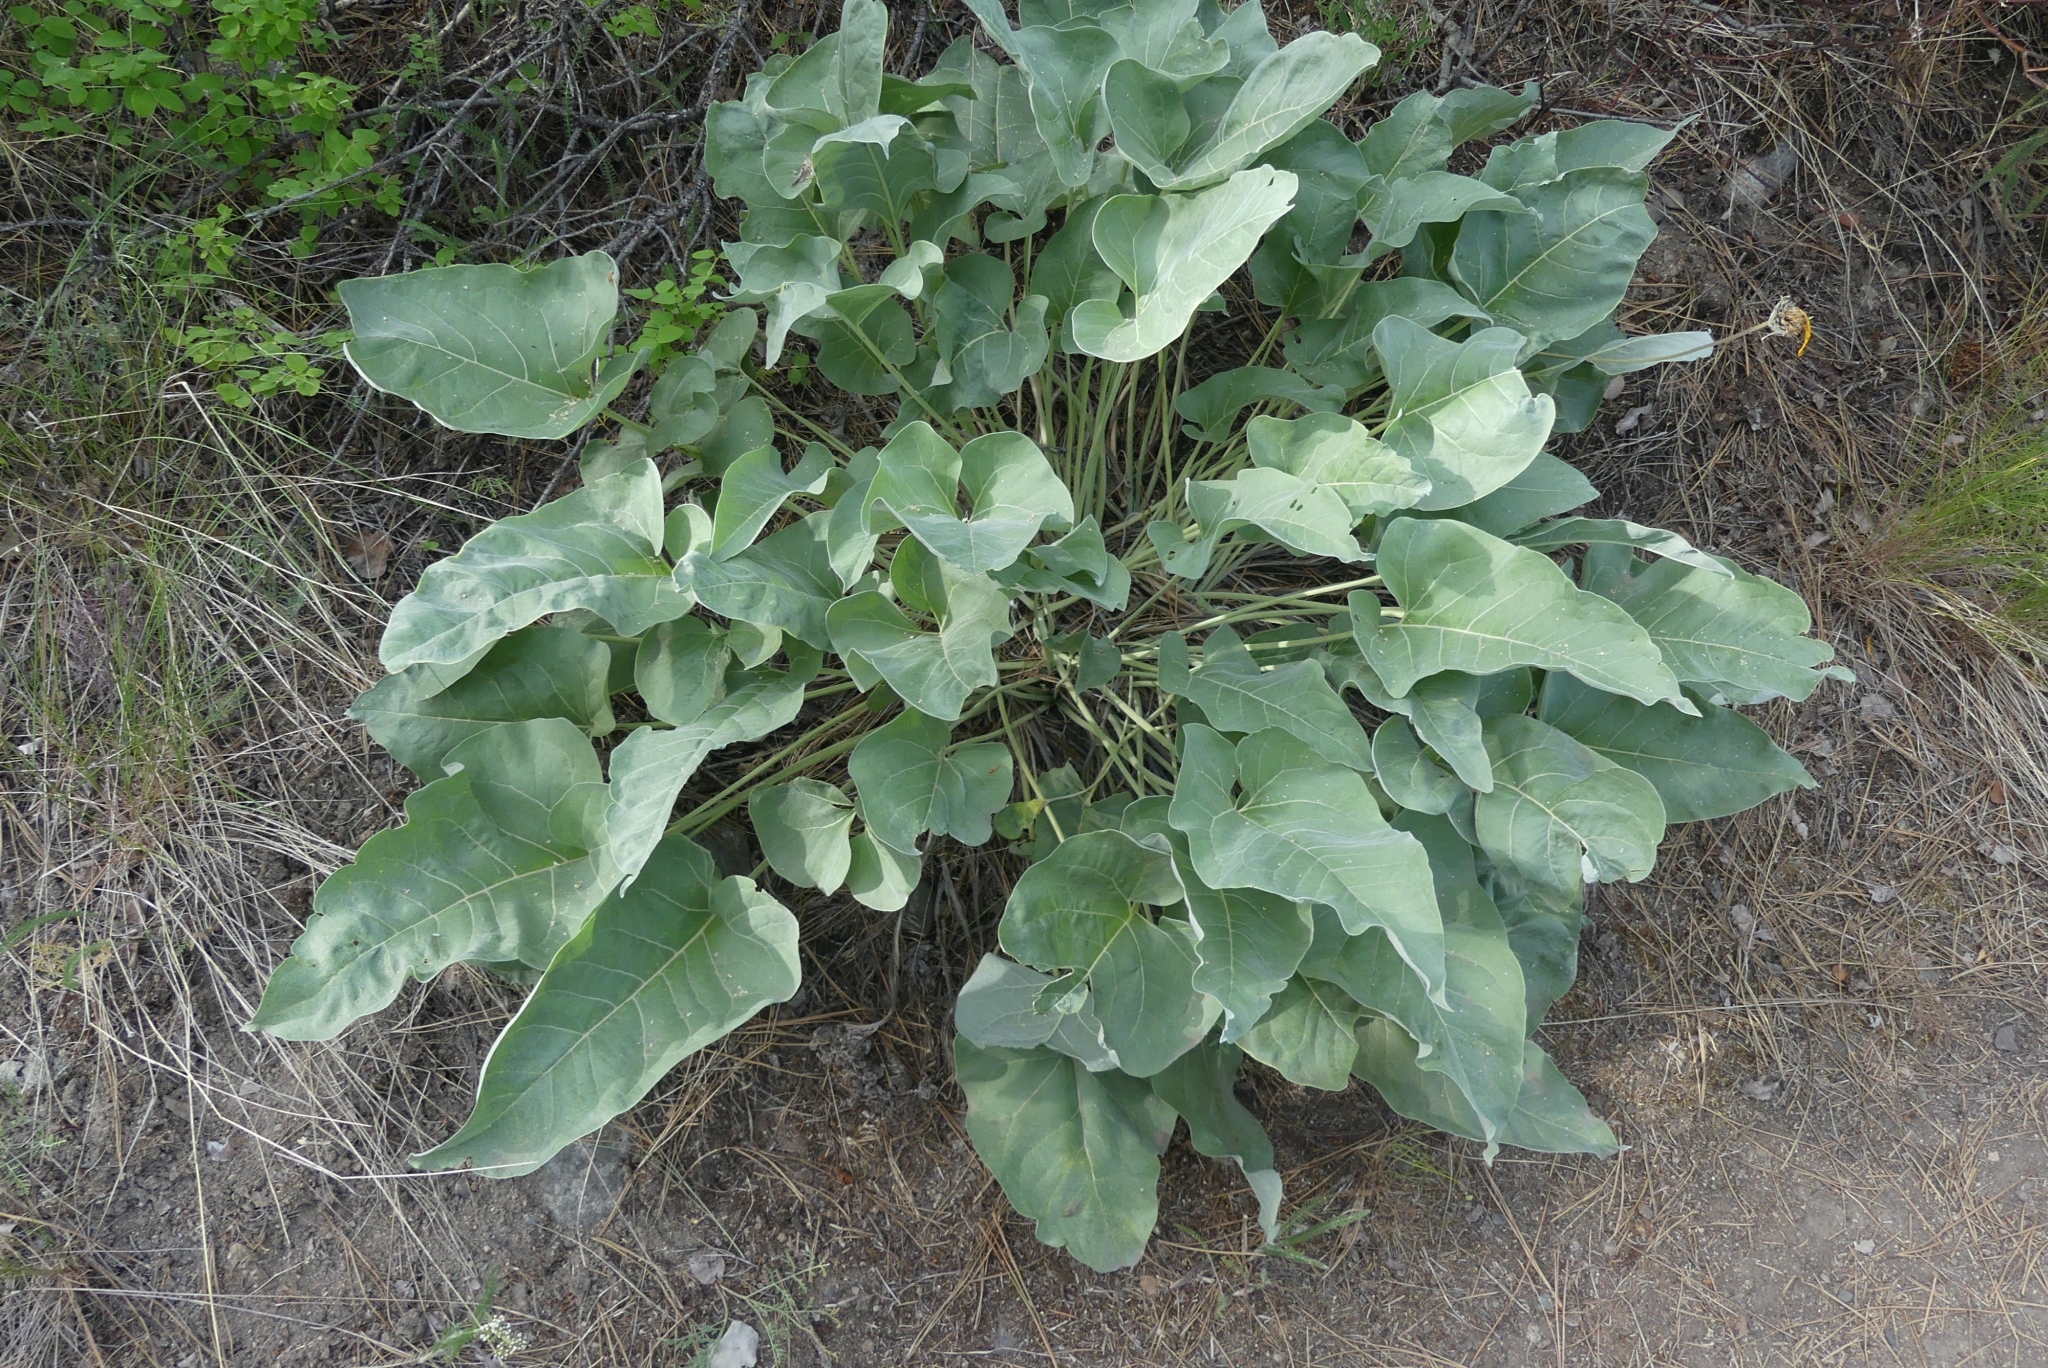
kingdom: Plantae
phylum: Tracheophyta
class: Magnoliopsida
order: Asterales
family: Asteraceae
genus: Wyethia
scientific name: Wyethia sagittata
